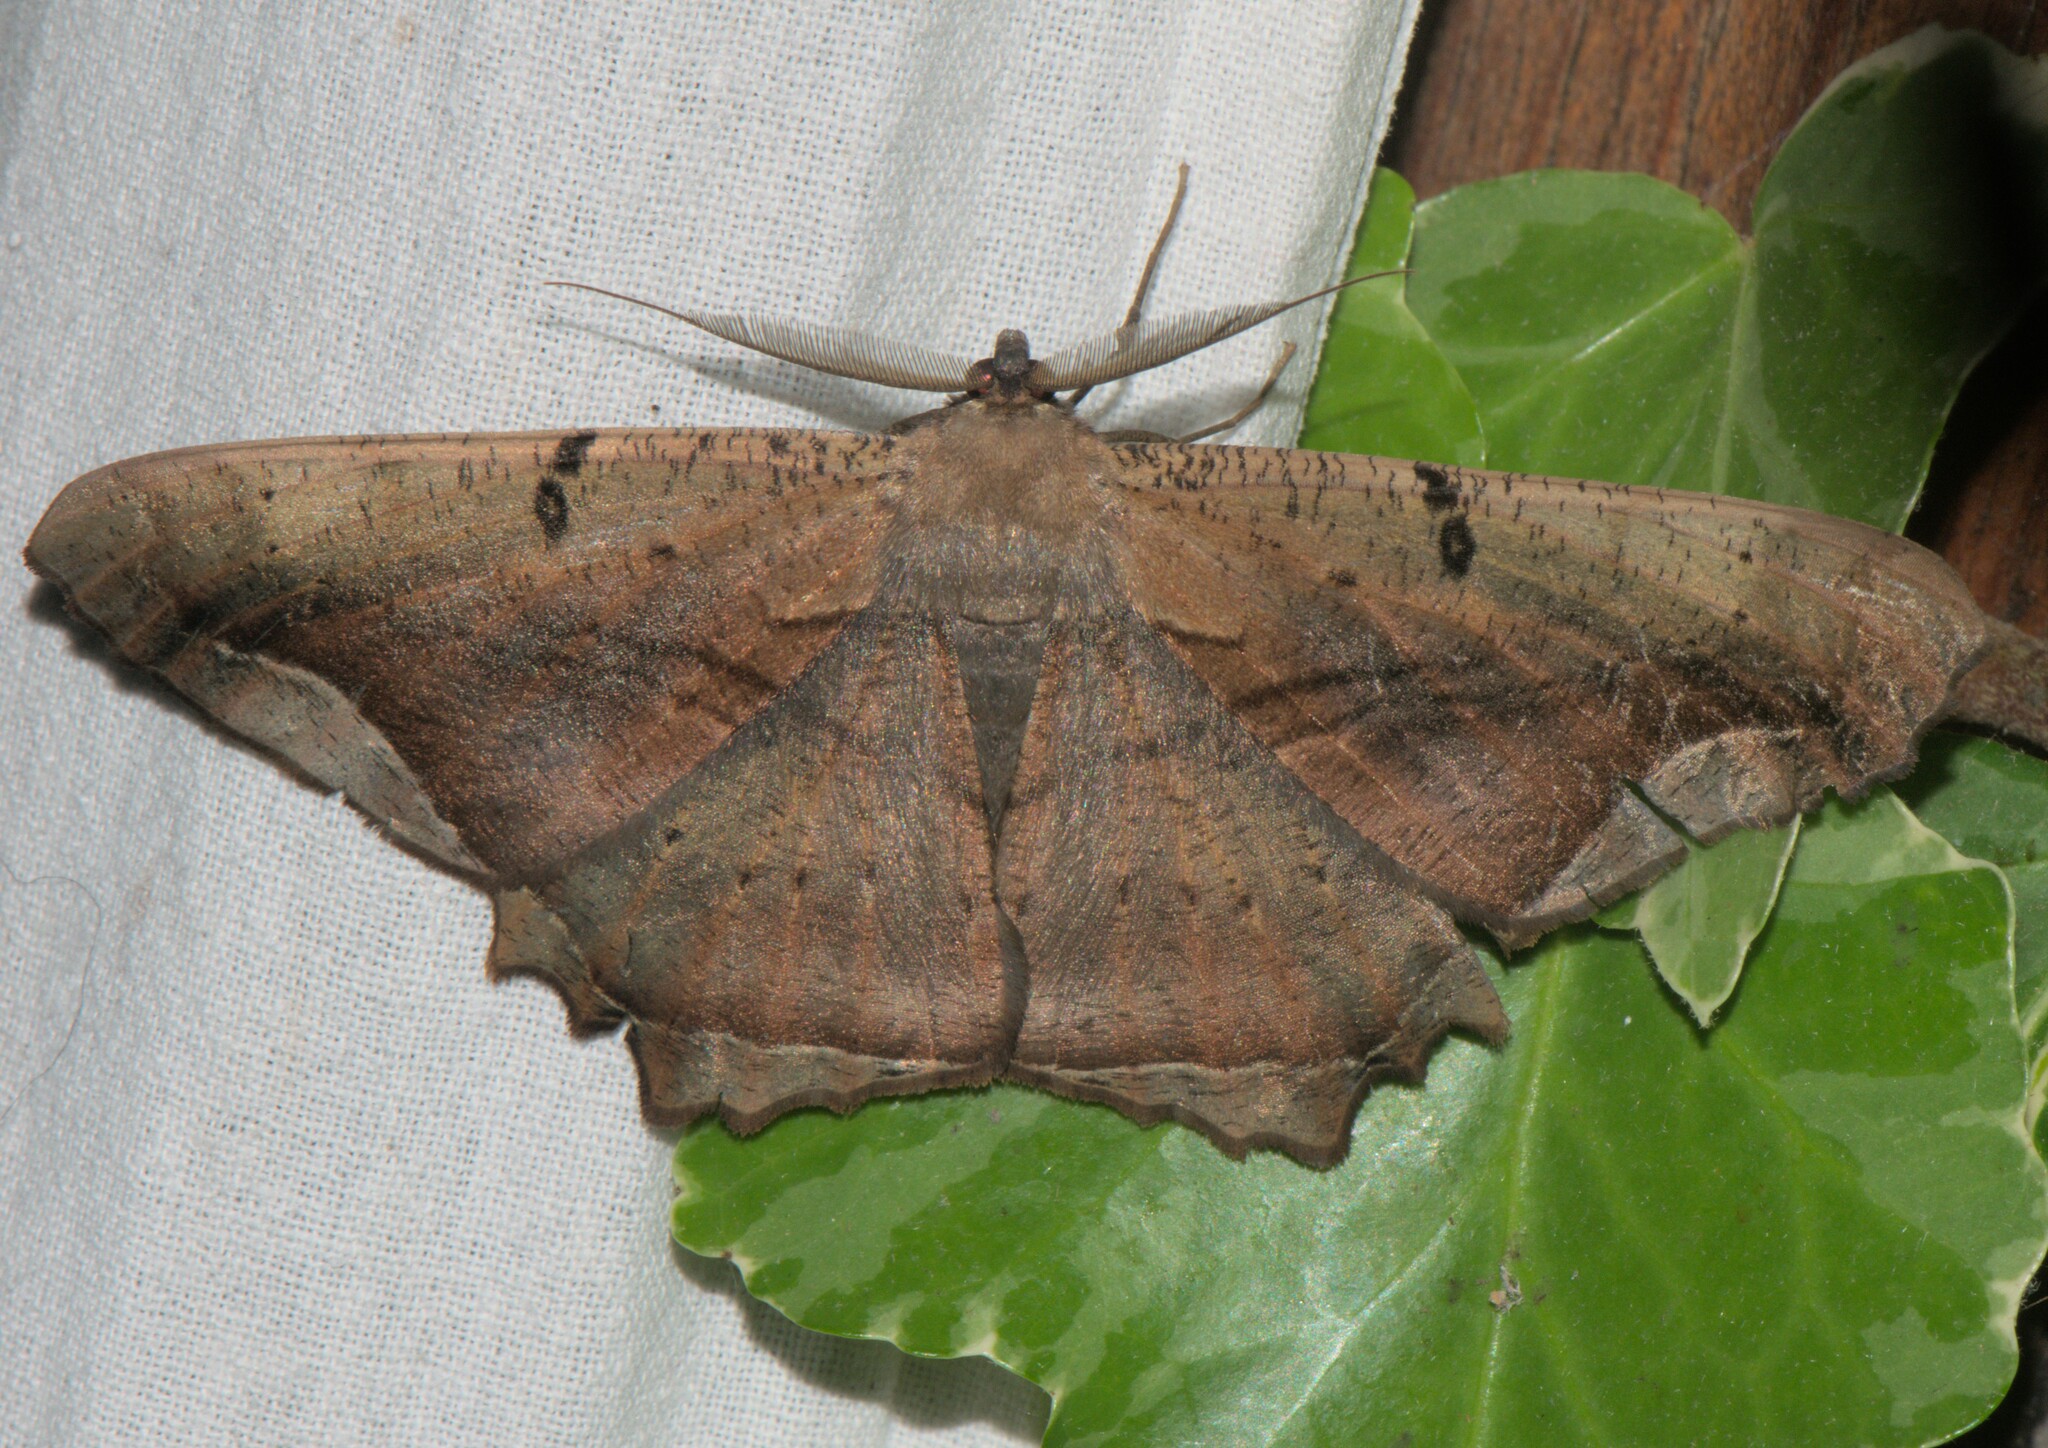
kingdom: Animalia
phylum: Arthropoda
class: Insecta
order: Lepidoptera
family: Geometridae
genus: Chorodna
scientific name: Chorodna adumbrata
